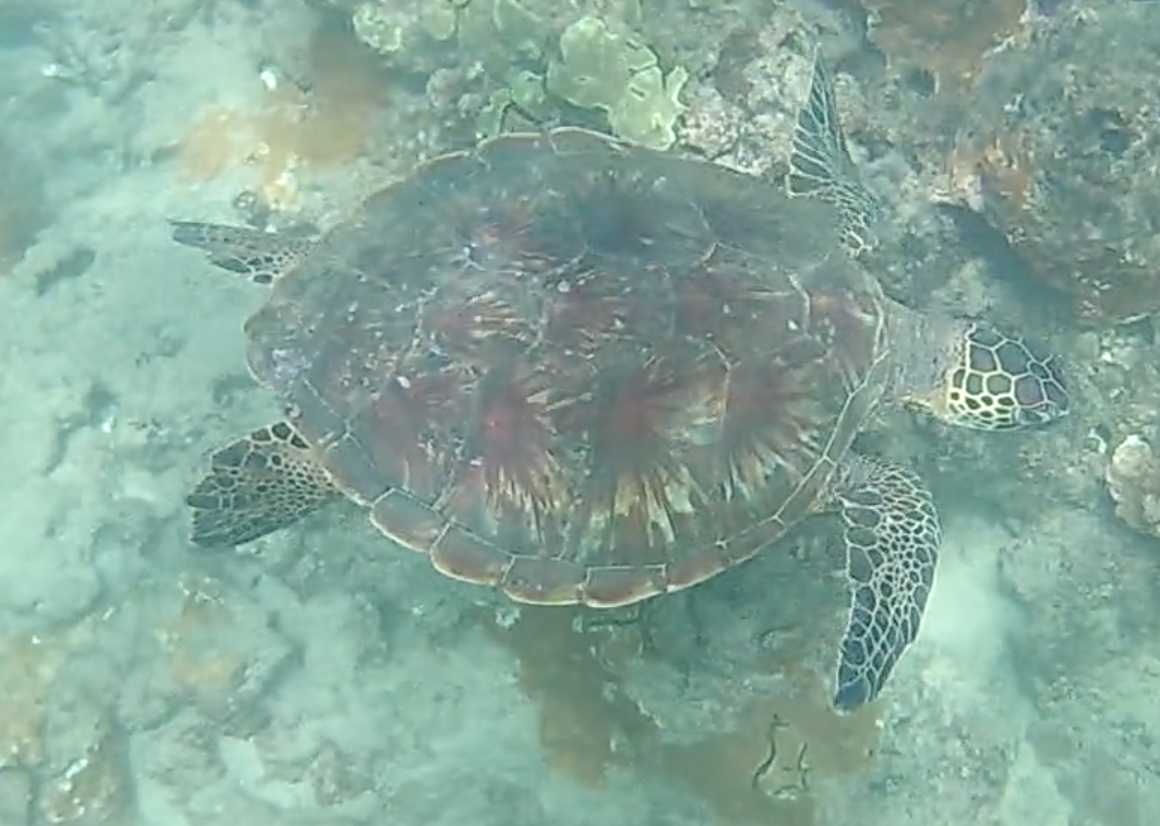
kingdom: Animalia
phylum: Chordata
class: Testudines
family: Cheloniidae
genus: Chelonia
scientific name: Chelonia mydas
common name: Green turtle
